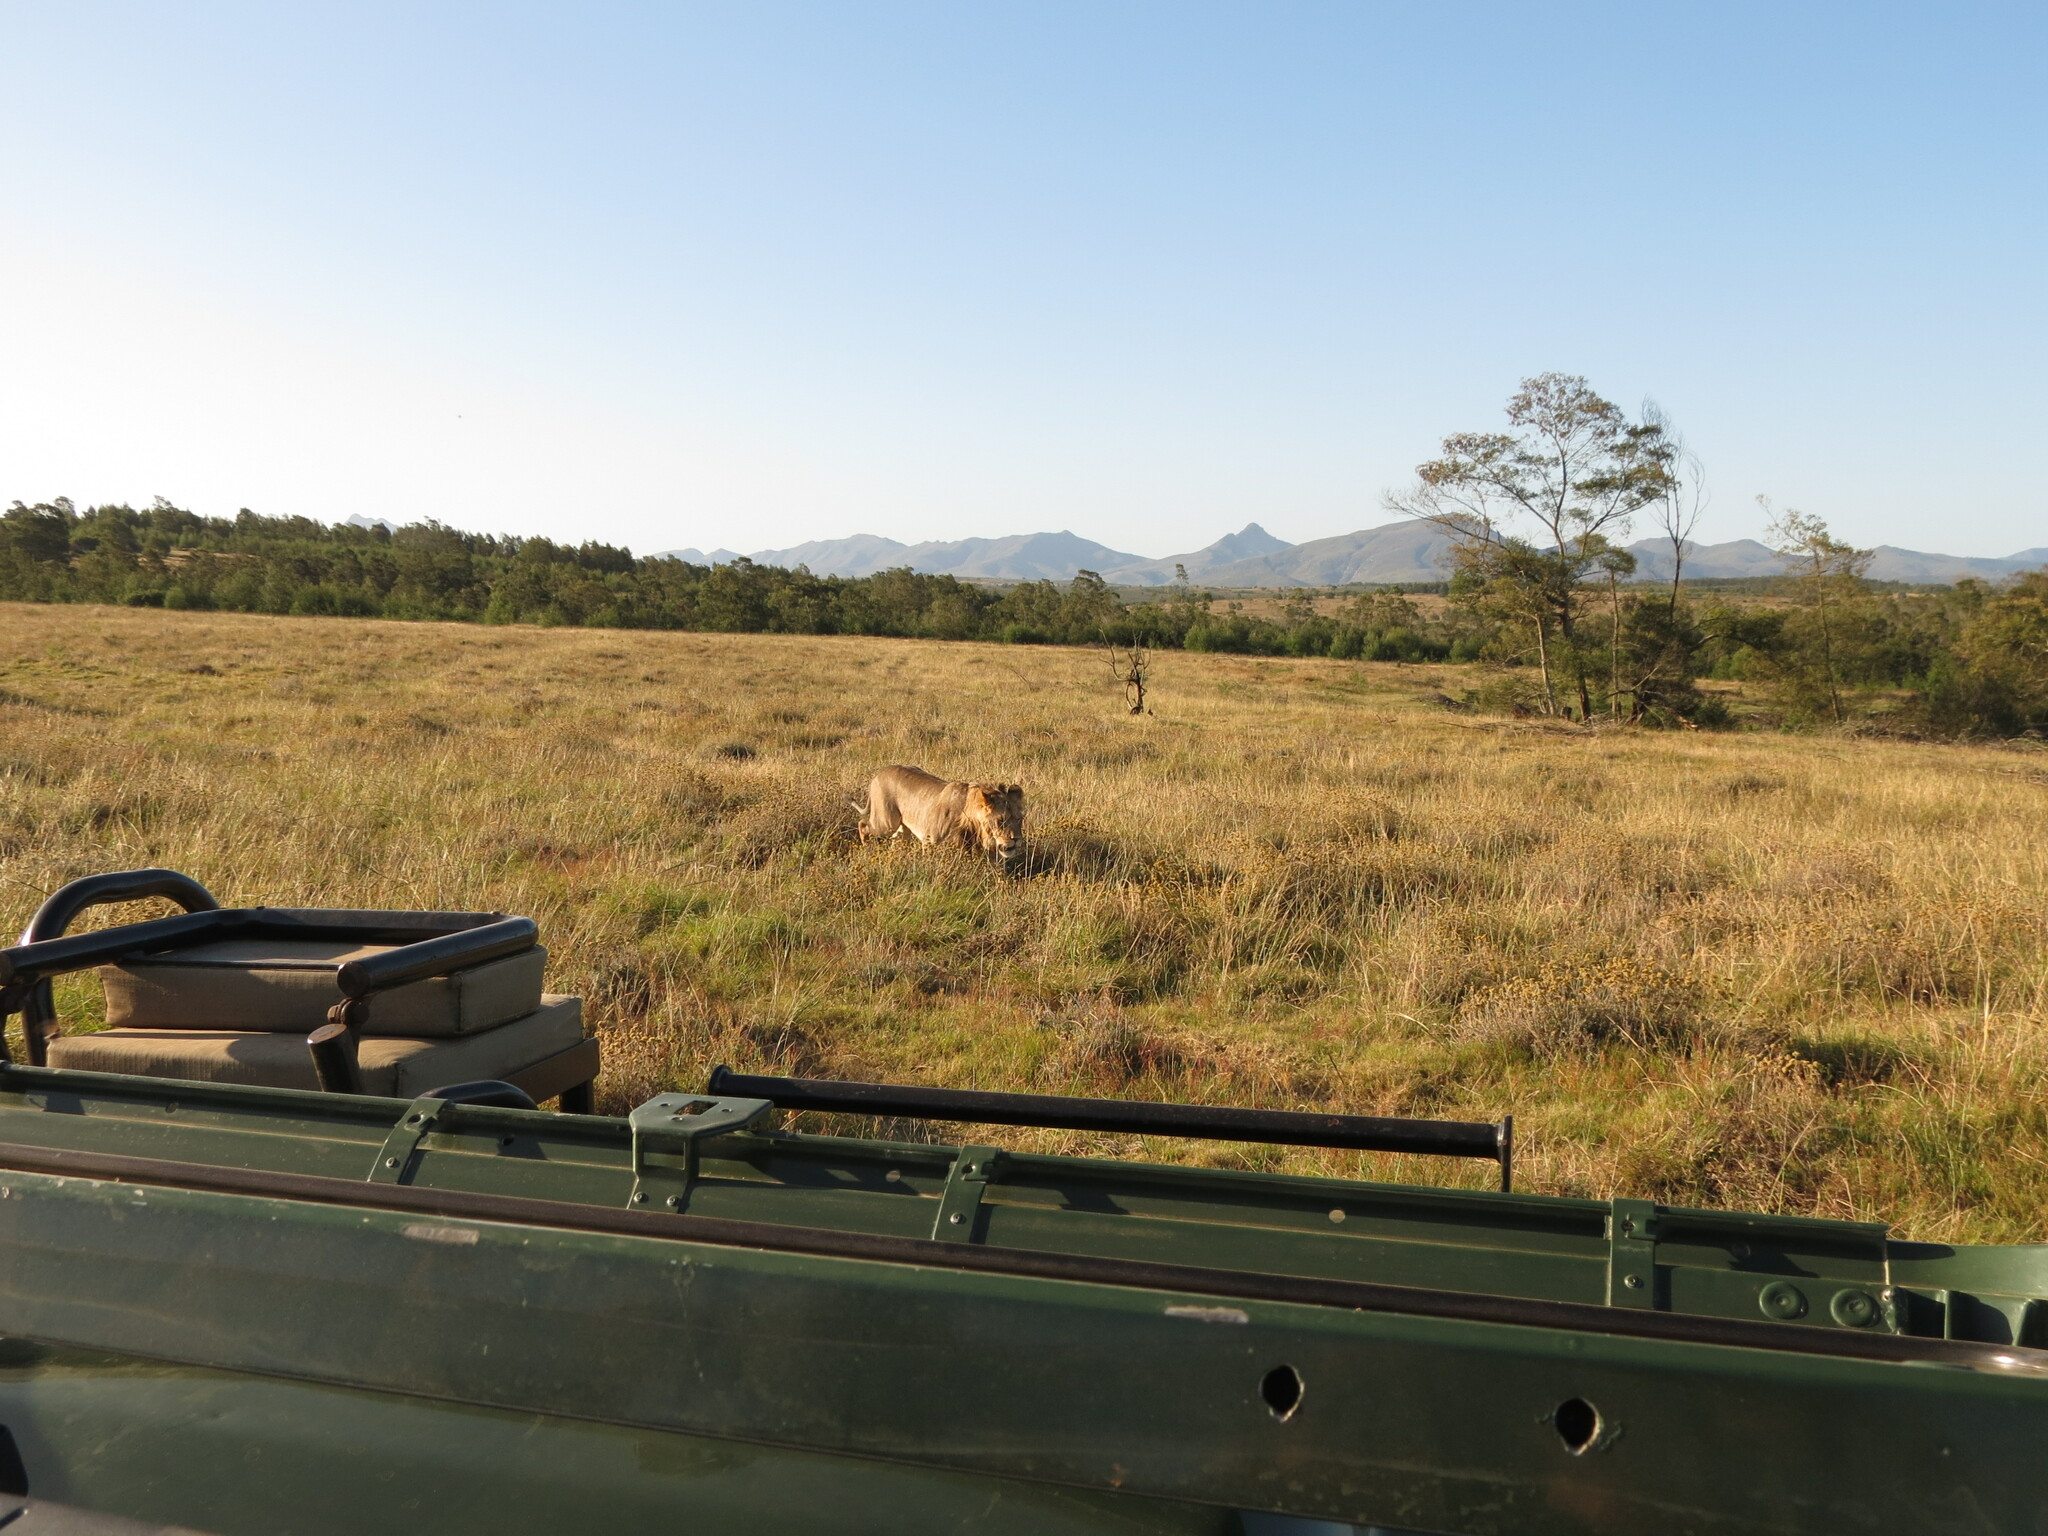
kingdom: Animalia
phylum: Chordata
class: Mammalia
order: Carnivora
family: Felidae
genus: Panthera
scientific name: Panthera leo
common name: Lion
